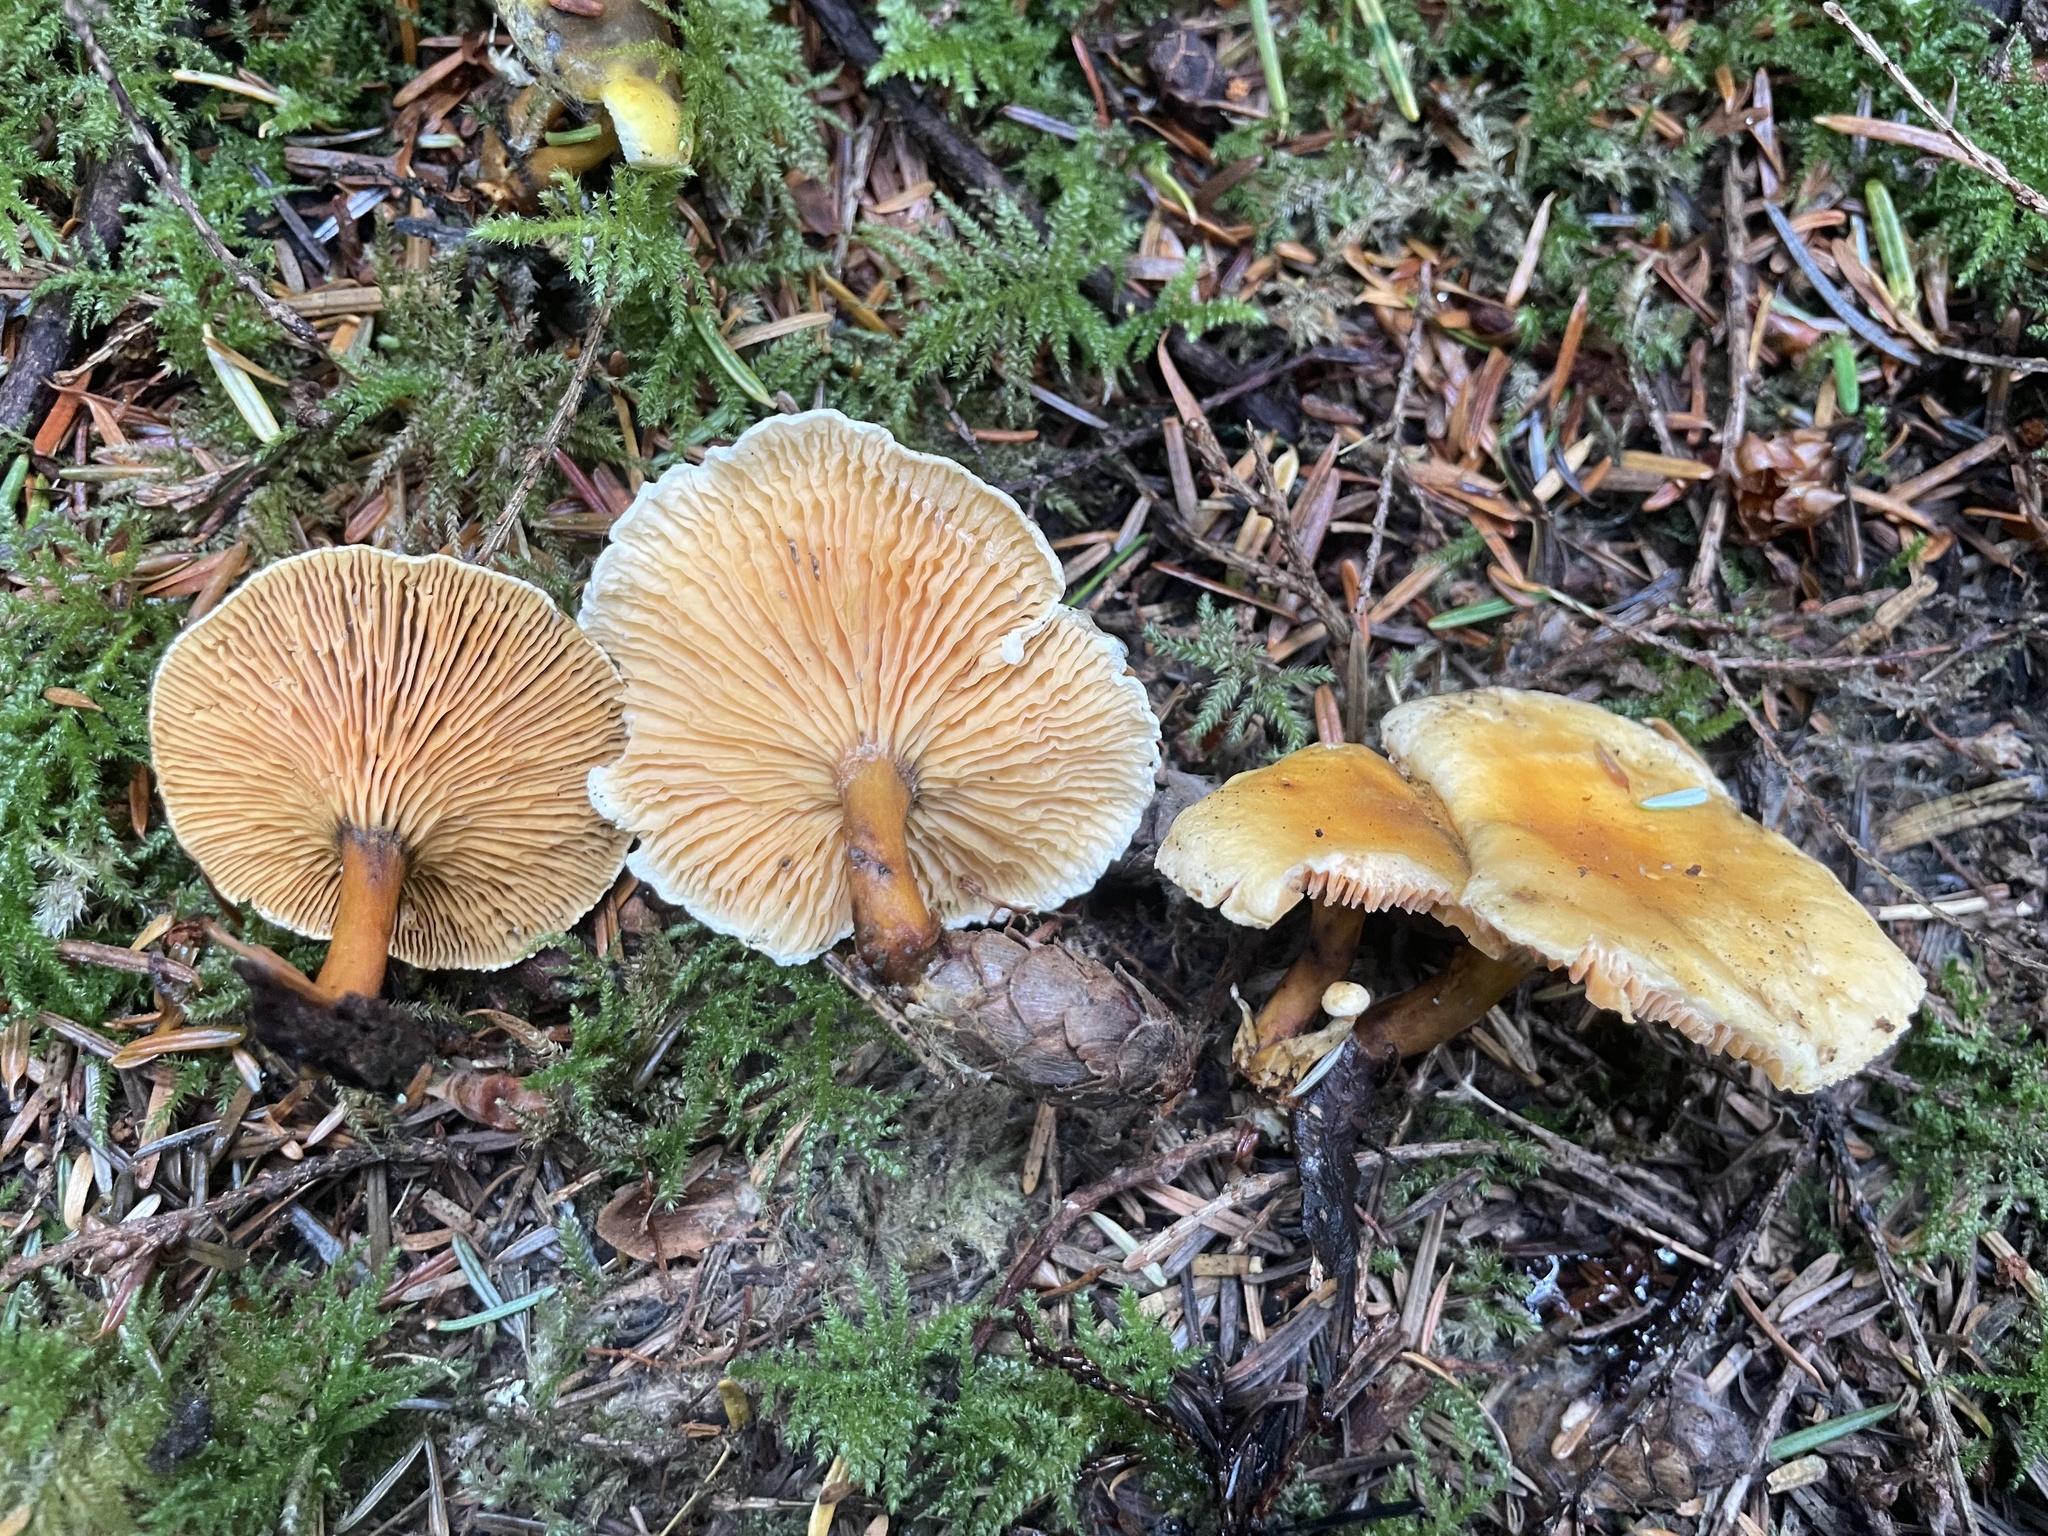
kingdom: Fungi
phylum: Basidiomycota
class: Agaricomycetes
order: Boletales
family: Hygrophoropsidaceae
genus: Hygrophoropsis
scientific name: Hygrophoropsis aurantiaca
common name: False chanterelle
